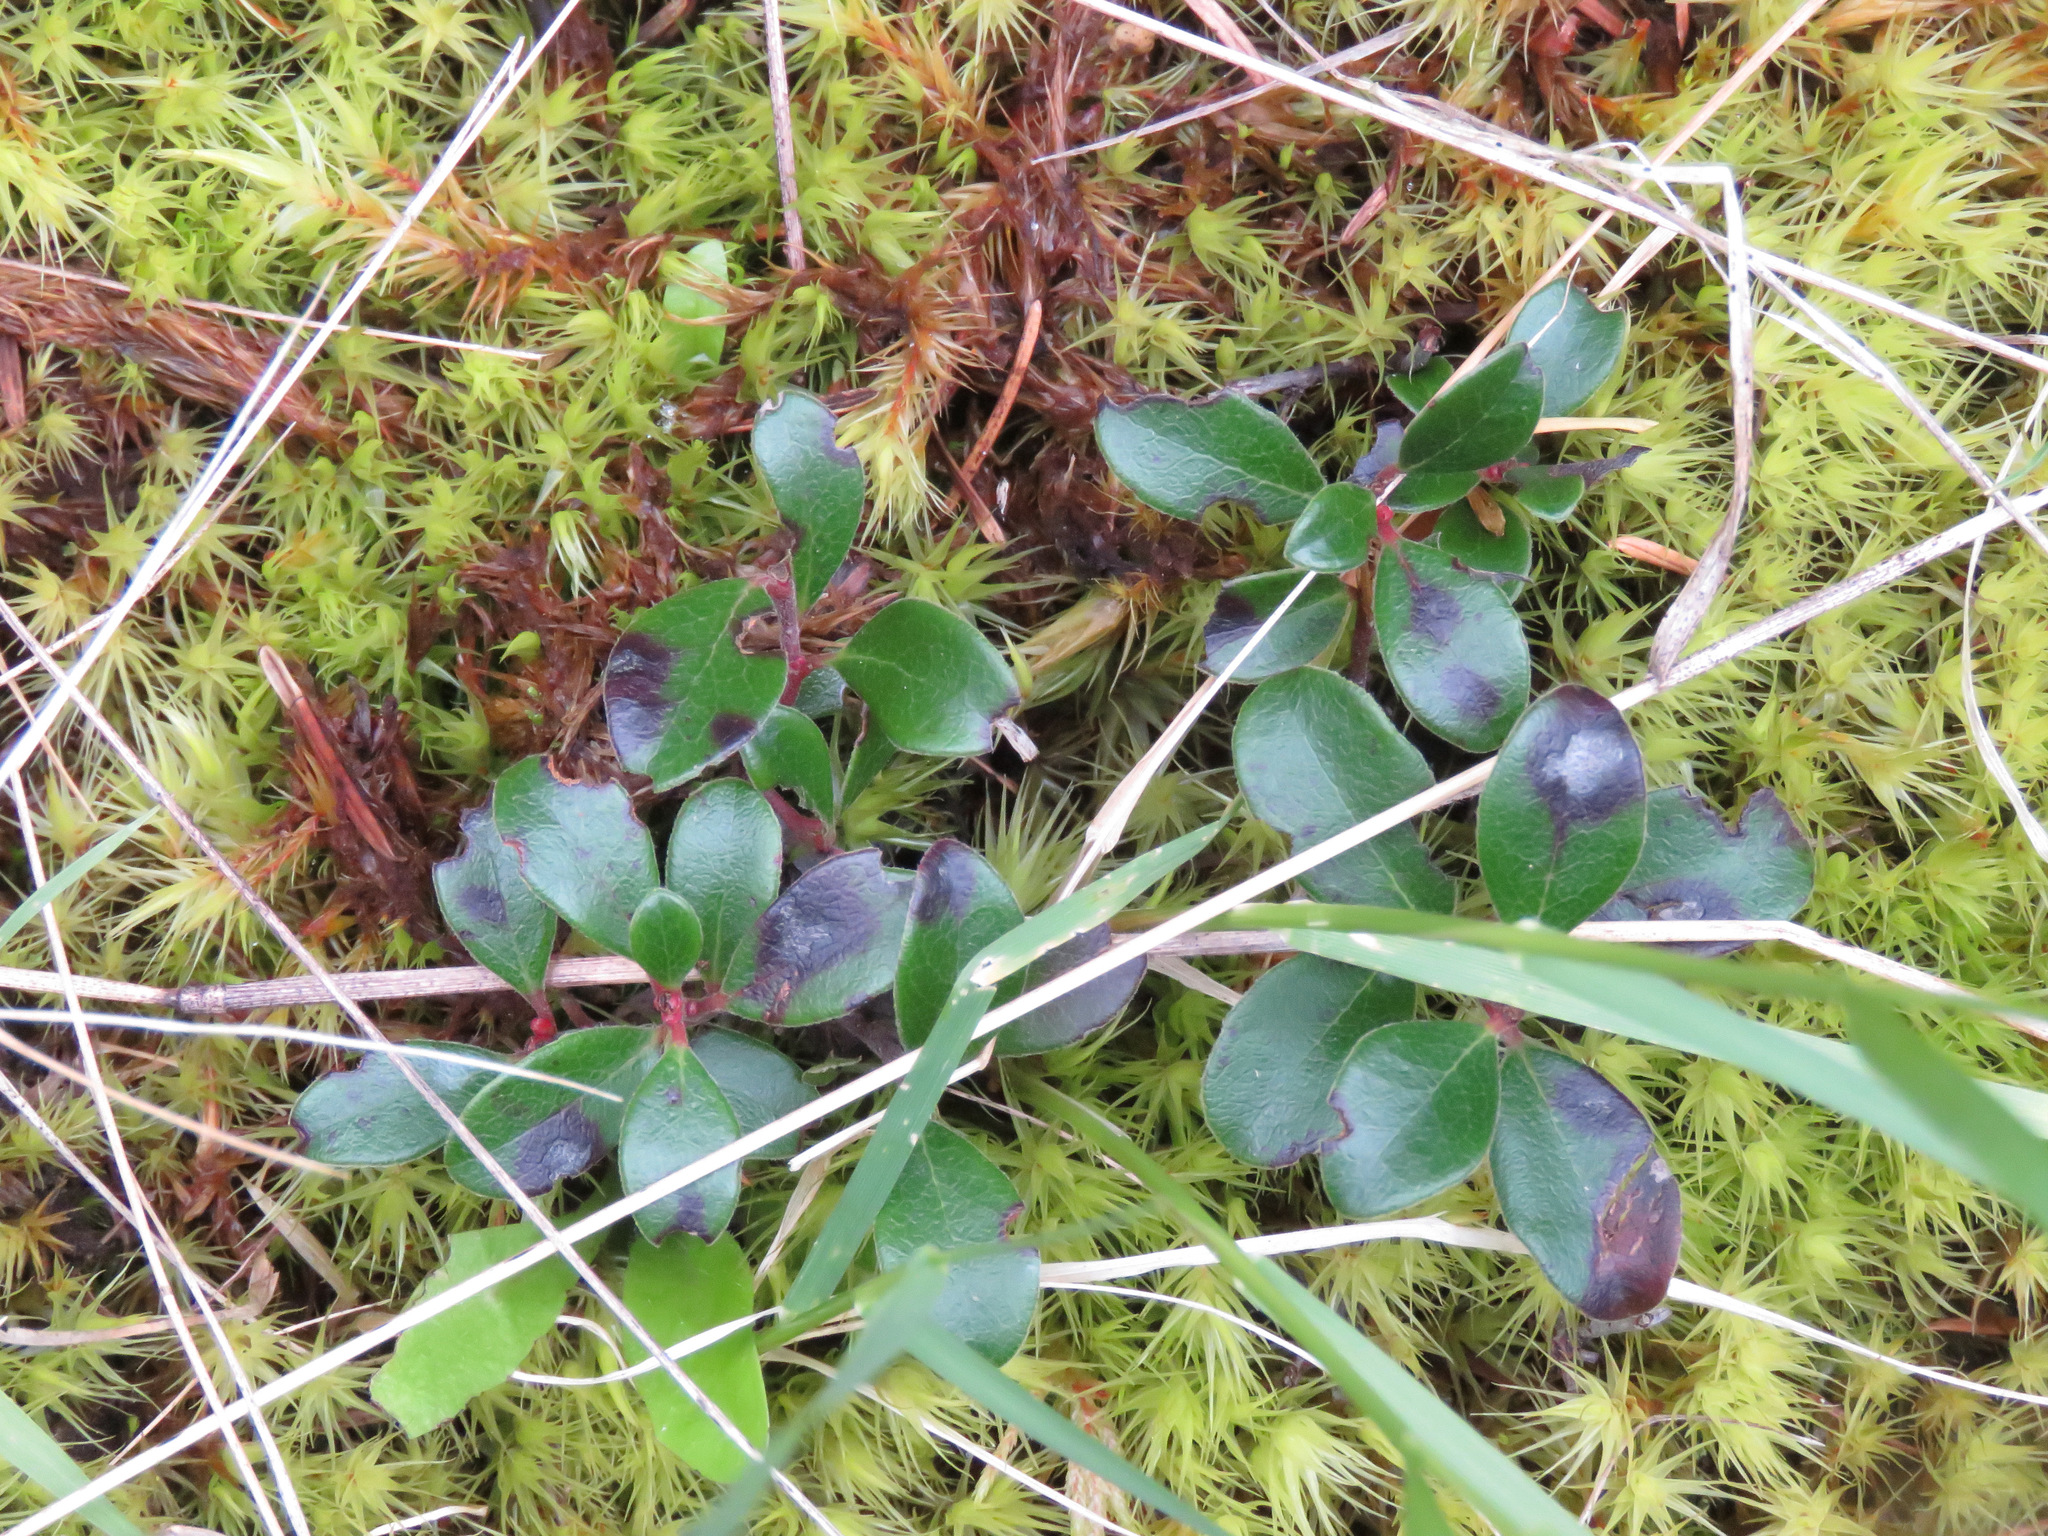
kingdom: Plantae
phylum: Tracheophyta
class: Magnoliopsida
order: Ericales
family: Ericaceae
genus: Arctostaphylos
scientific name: Arctostaphylos uva-ursi
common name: Bearberry
